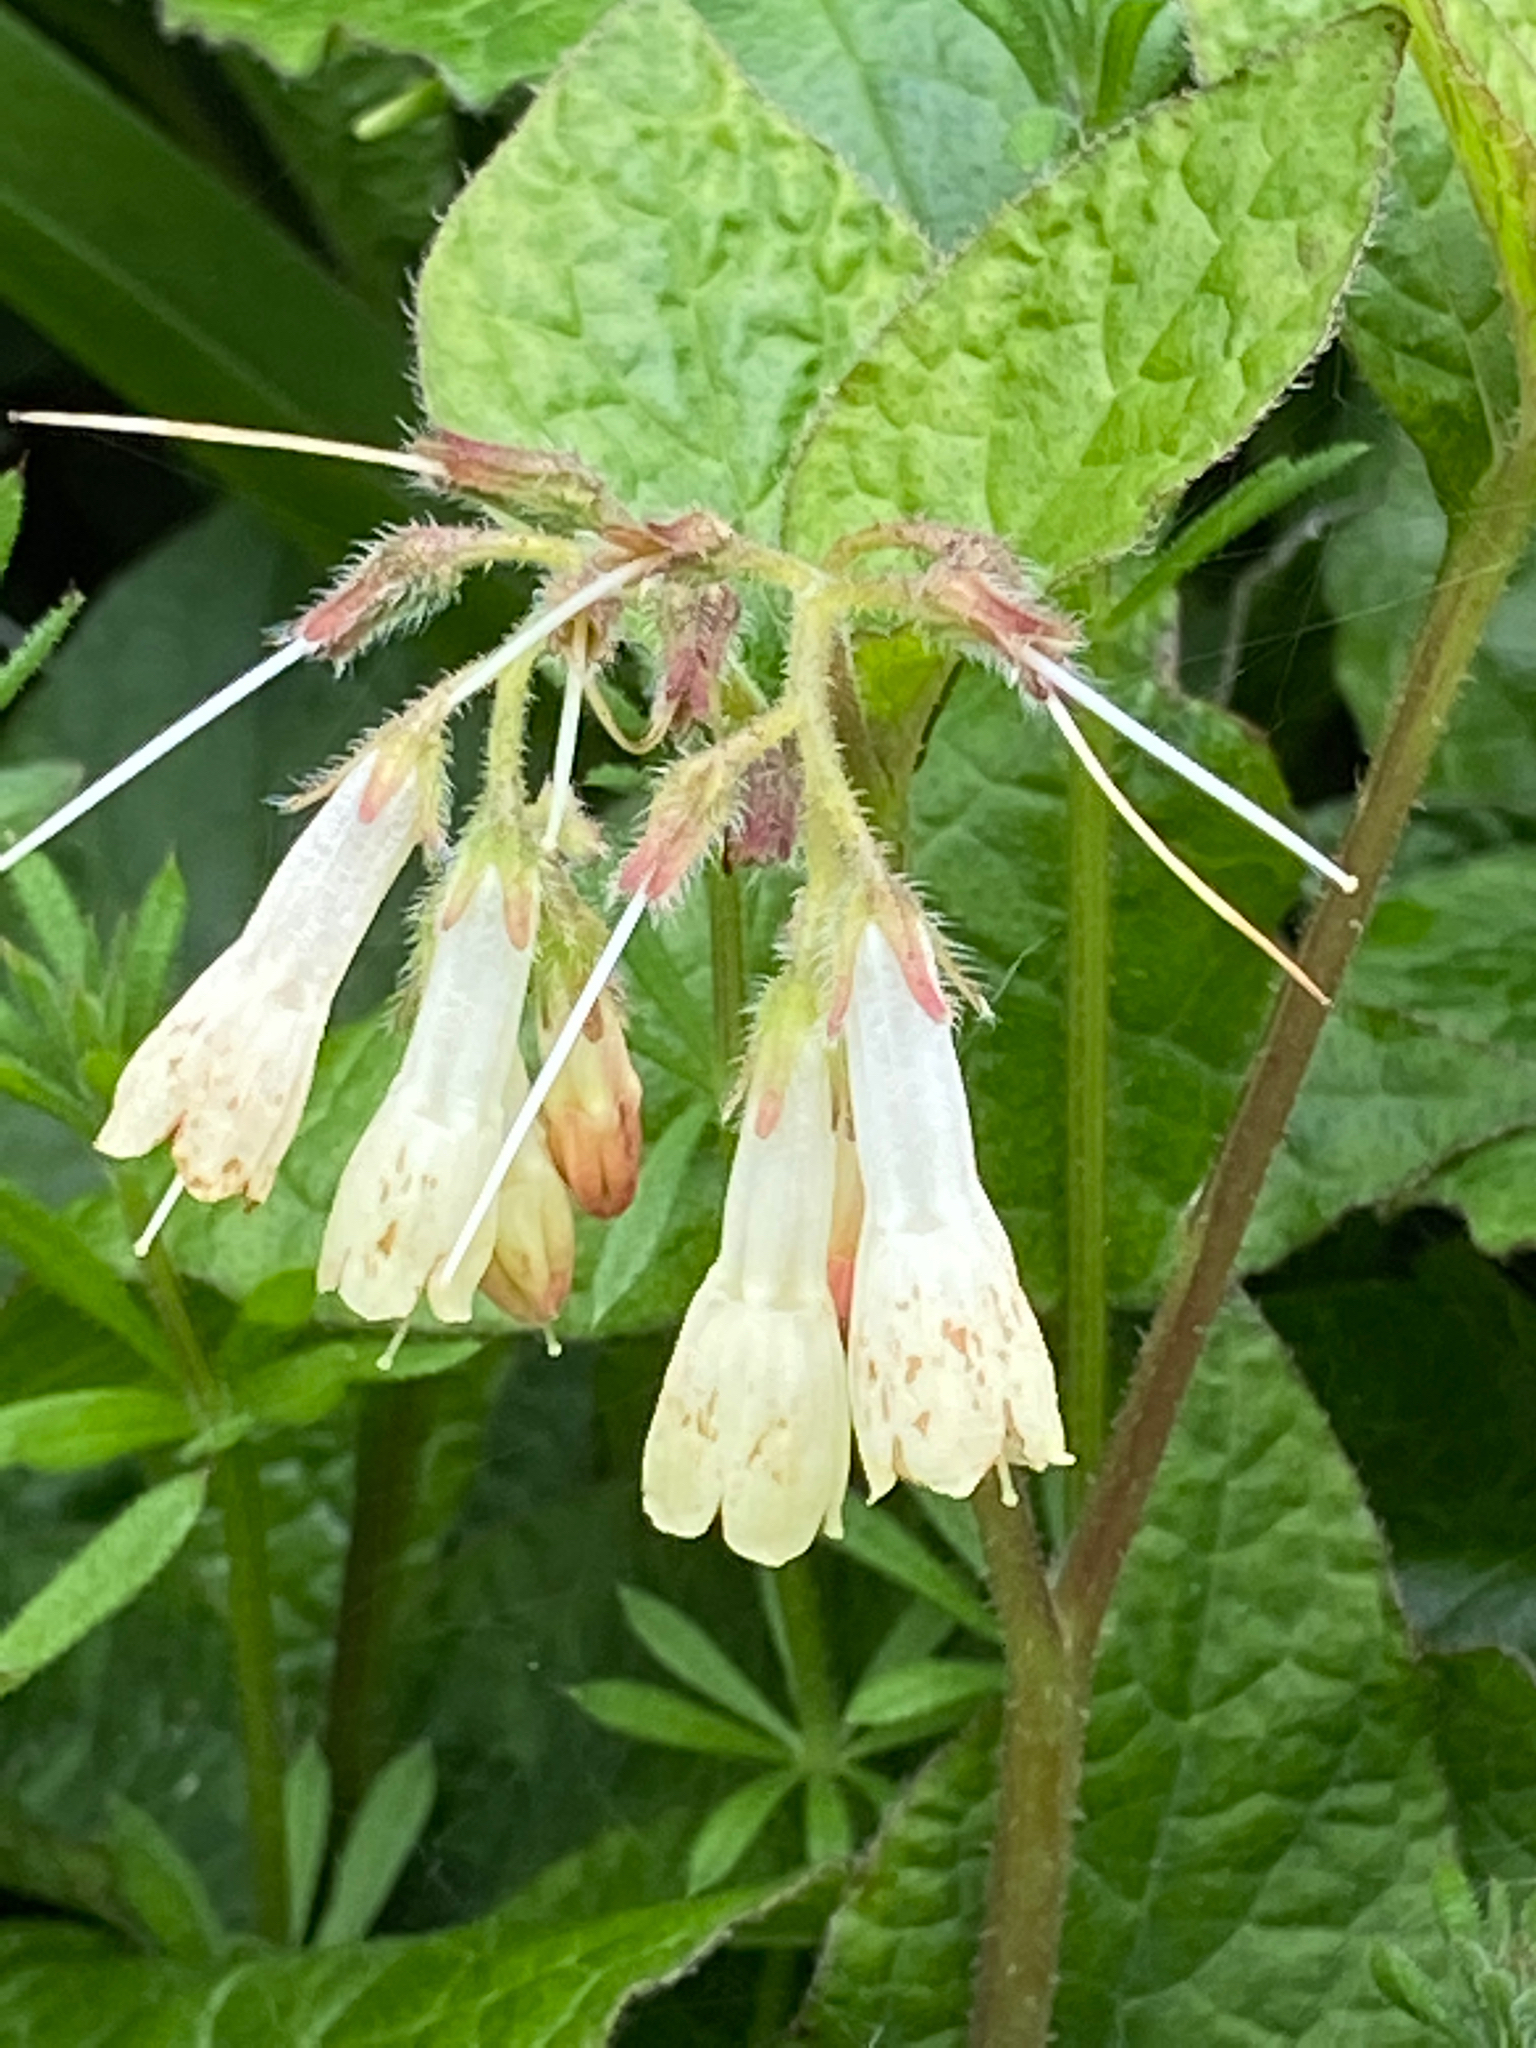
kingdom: Plantae
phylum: Tracheophyta
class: Magnoliopsida
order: Boraginales
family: Boraginaceae
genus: Symphytum
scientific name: Symphytum grandiflorum
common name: Creeping comfrey
